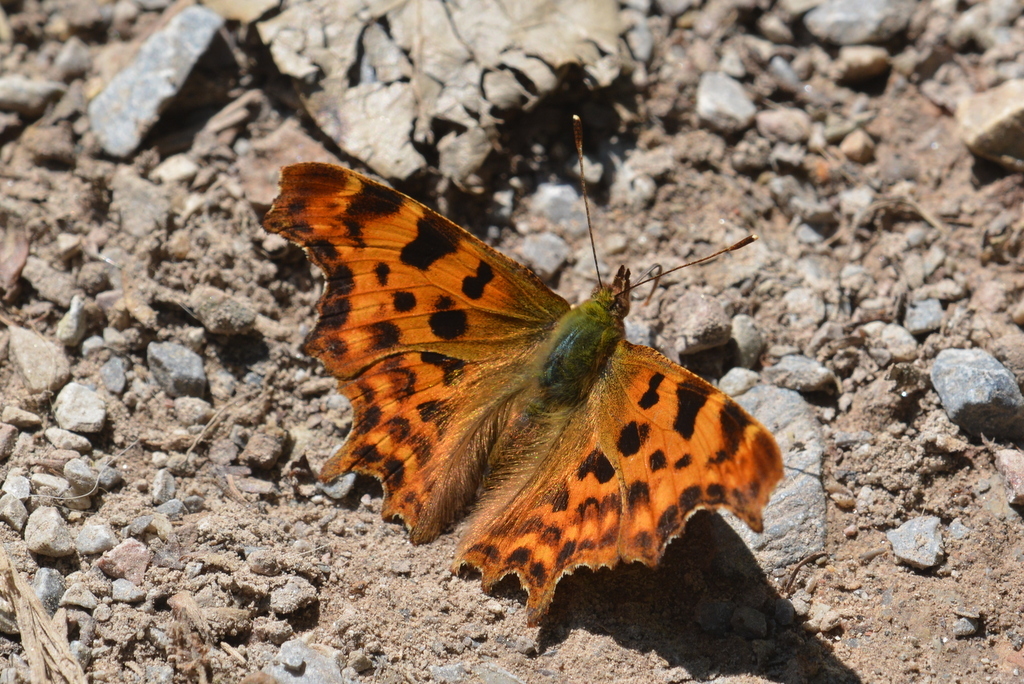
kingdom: Animalia
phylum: Arthropoda
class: Insecta
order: Lepidoptera
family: Nymphalidae
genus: Polygonia
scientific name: Polygonia c-album
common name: Comma
